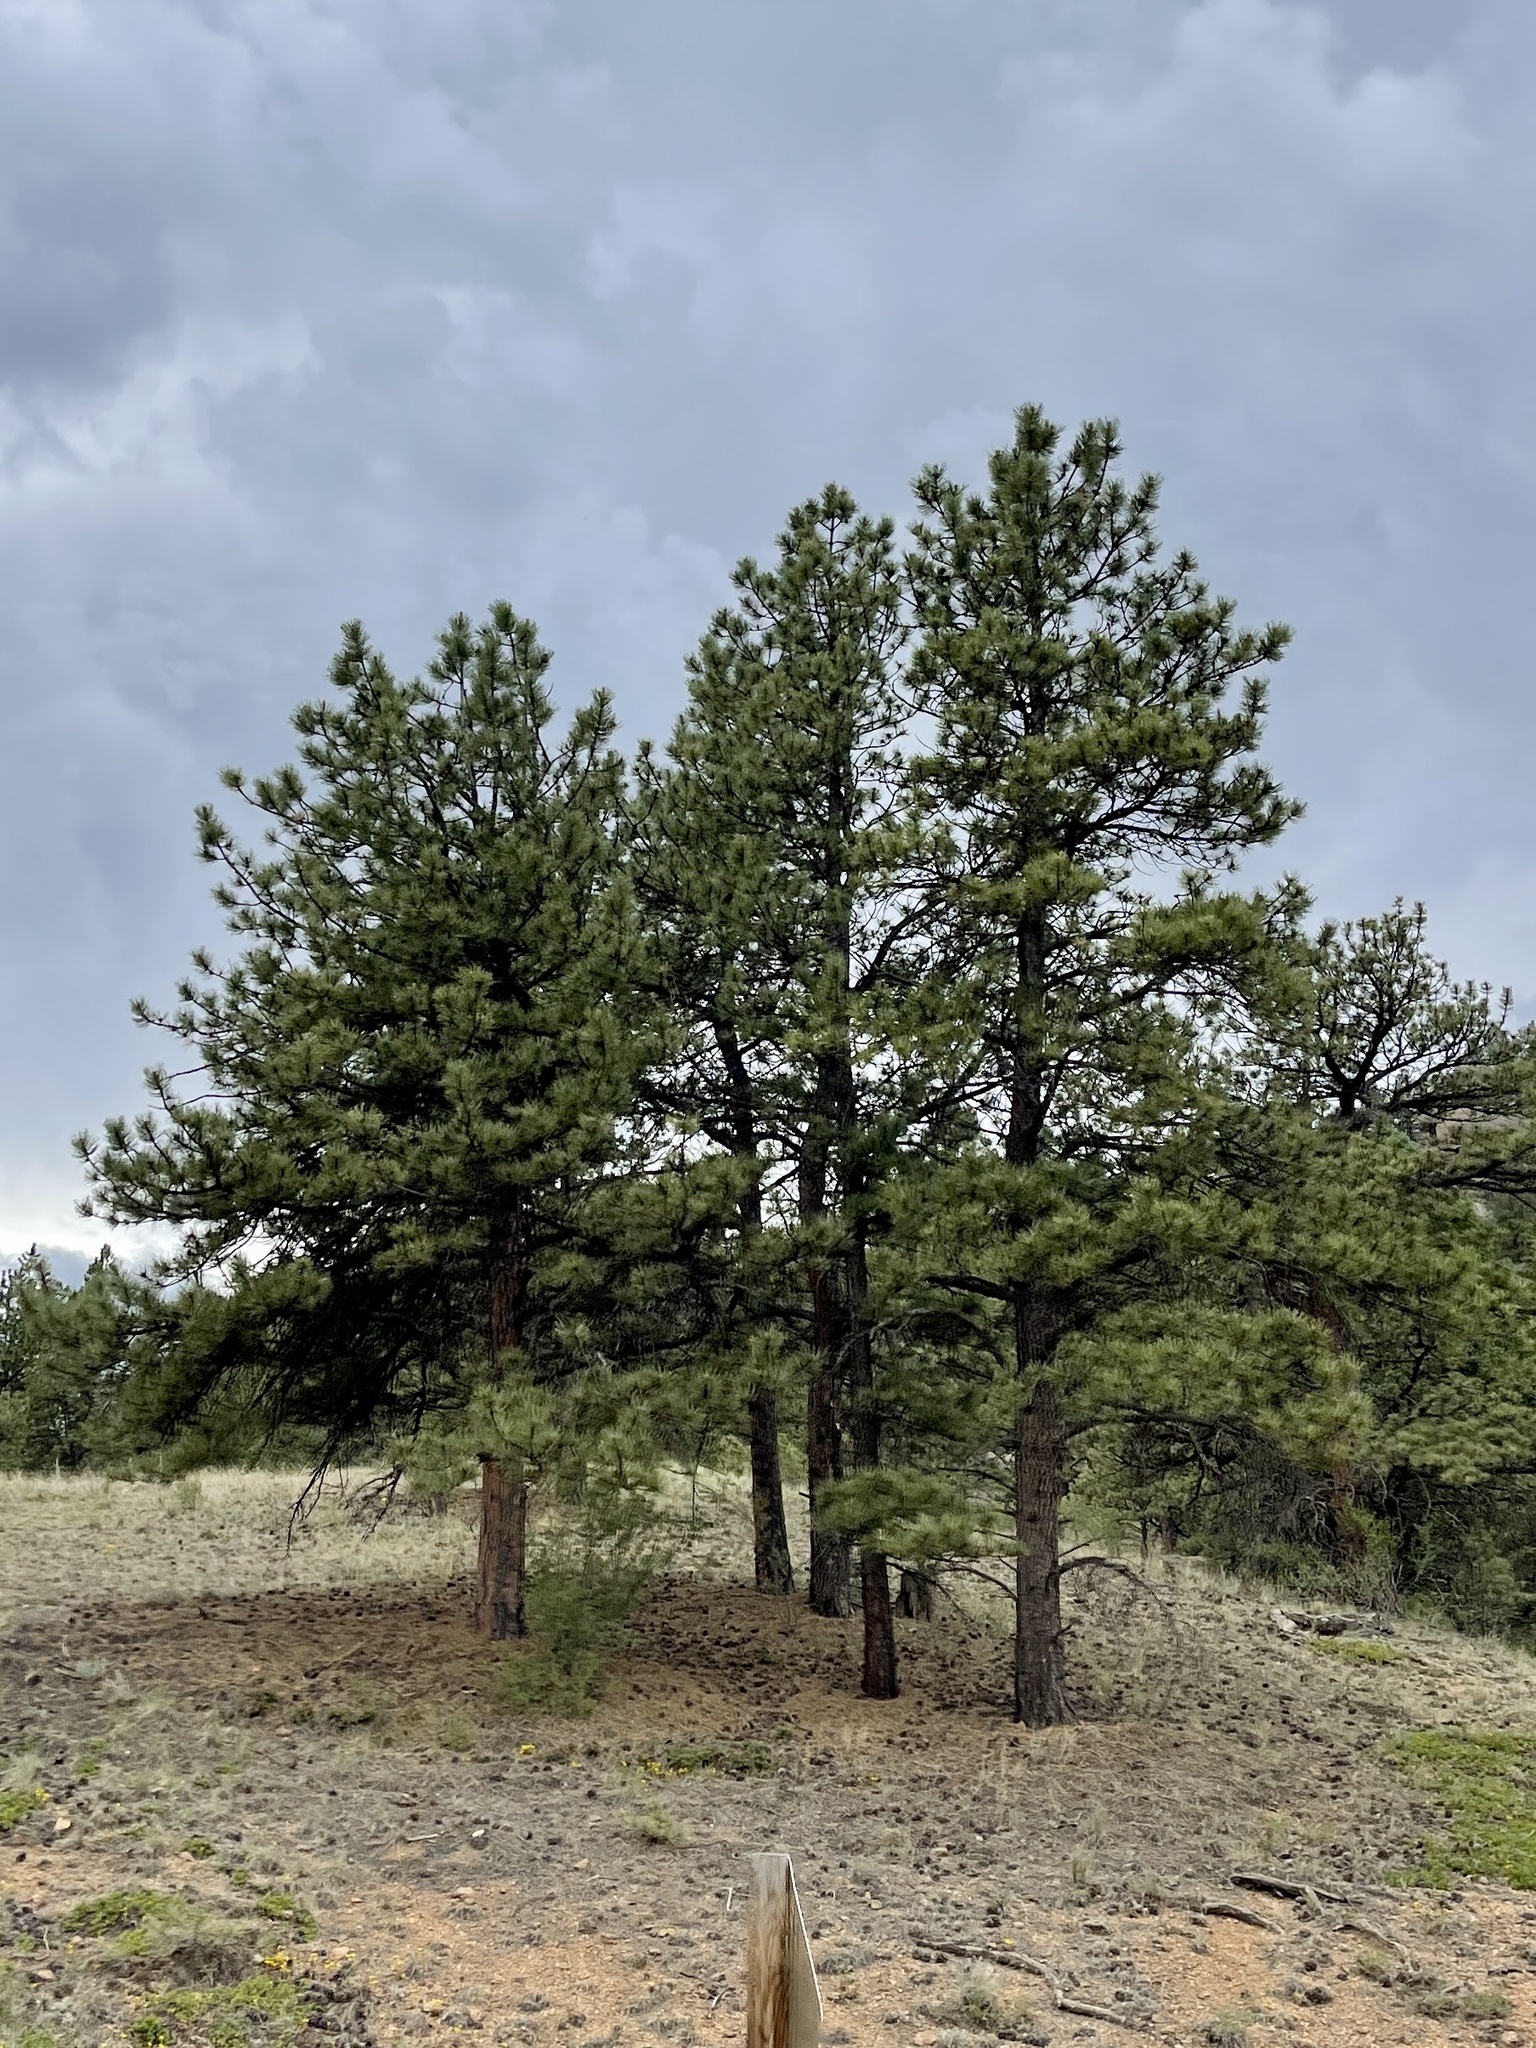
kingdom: Plantae
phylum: Tracheophyta
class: Pinopsida
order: Pinales
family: Pinaceae
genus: Pinus
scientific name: Pinus ponderosa
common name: Western yellow-pine
